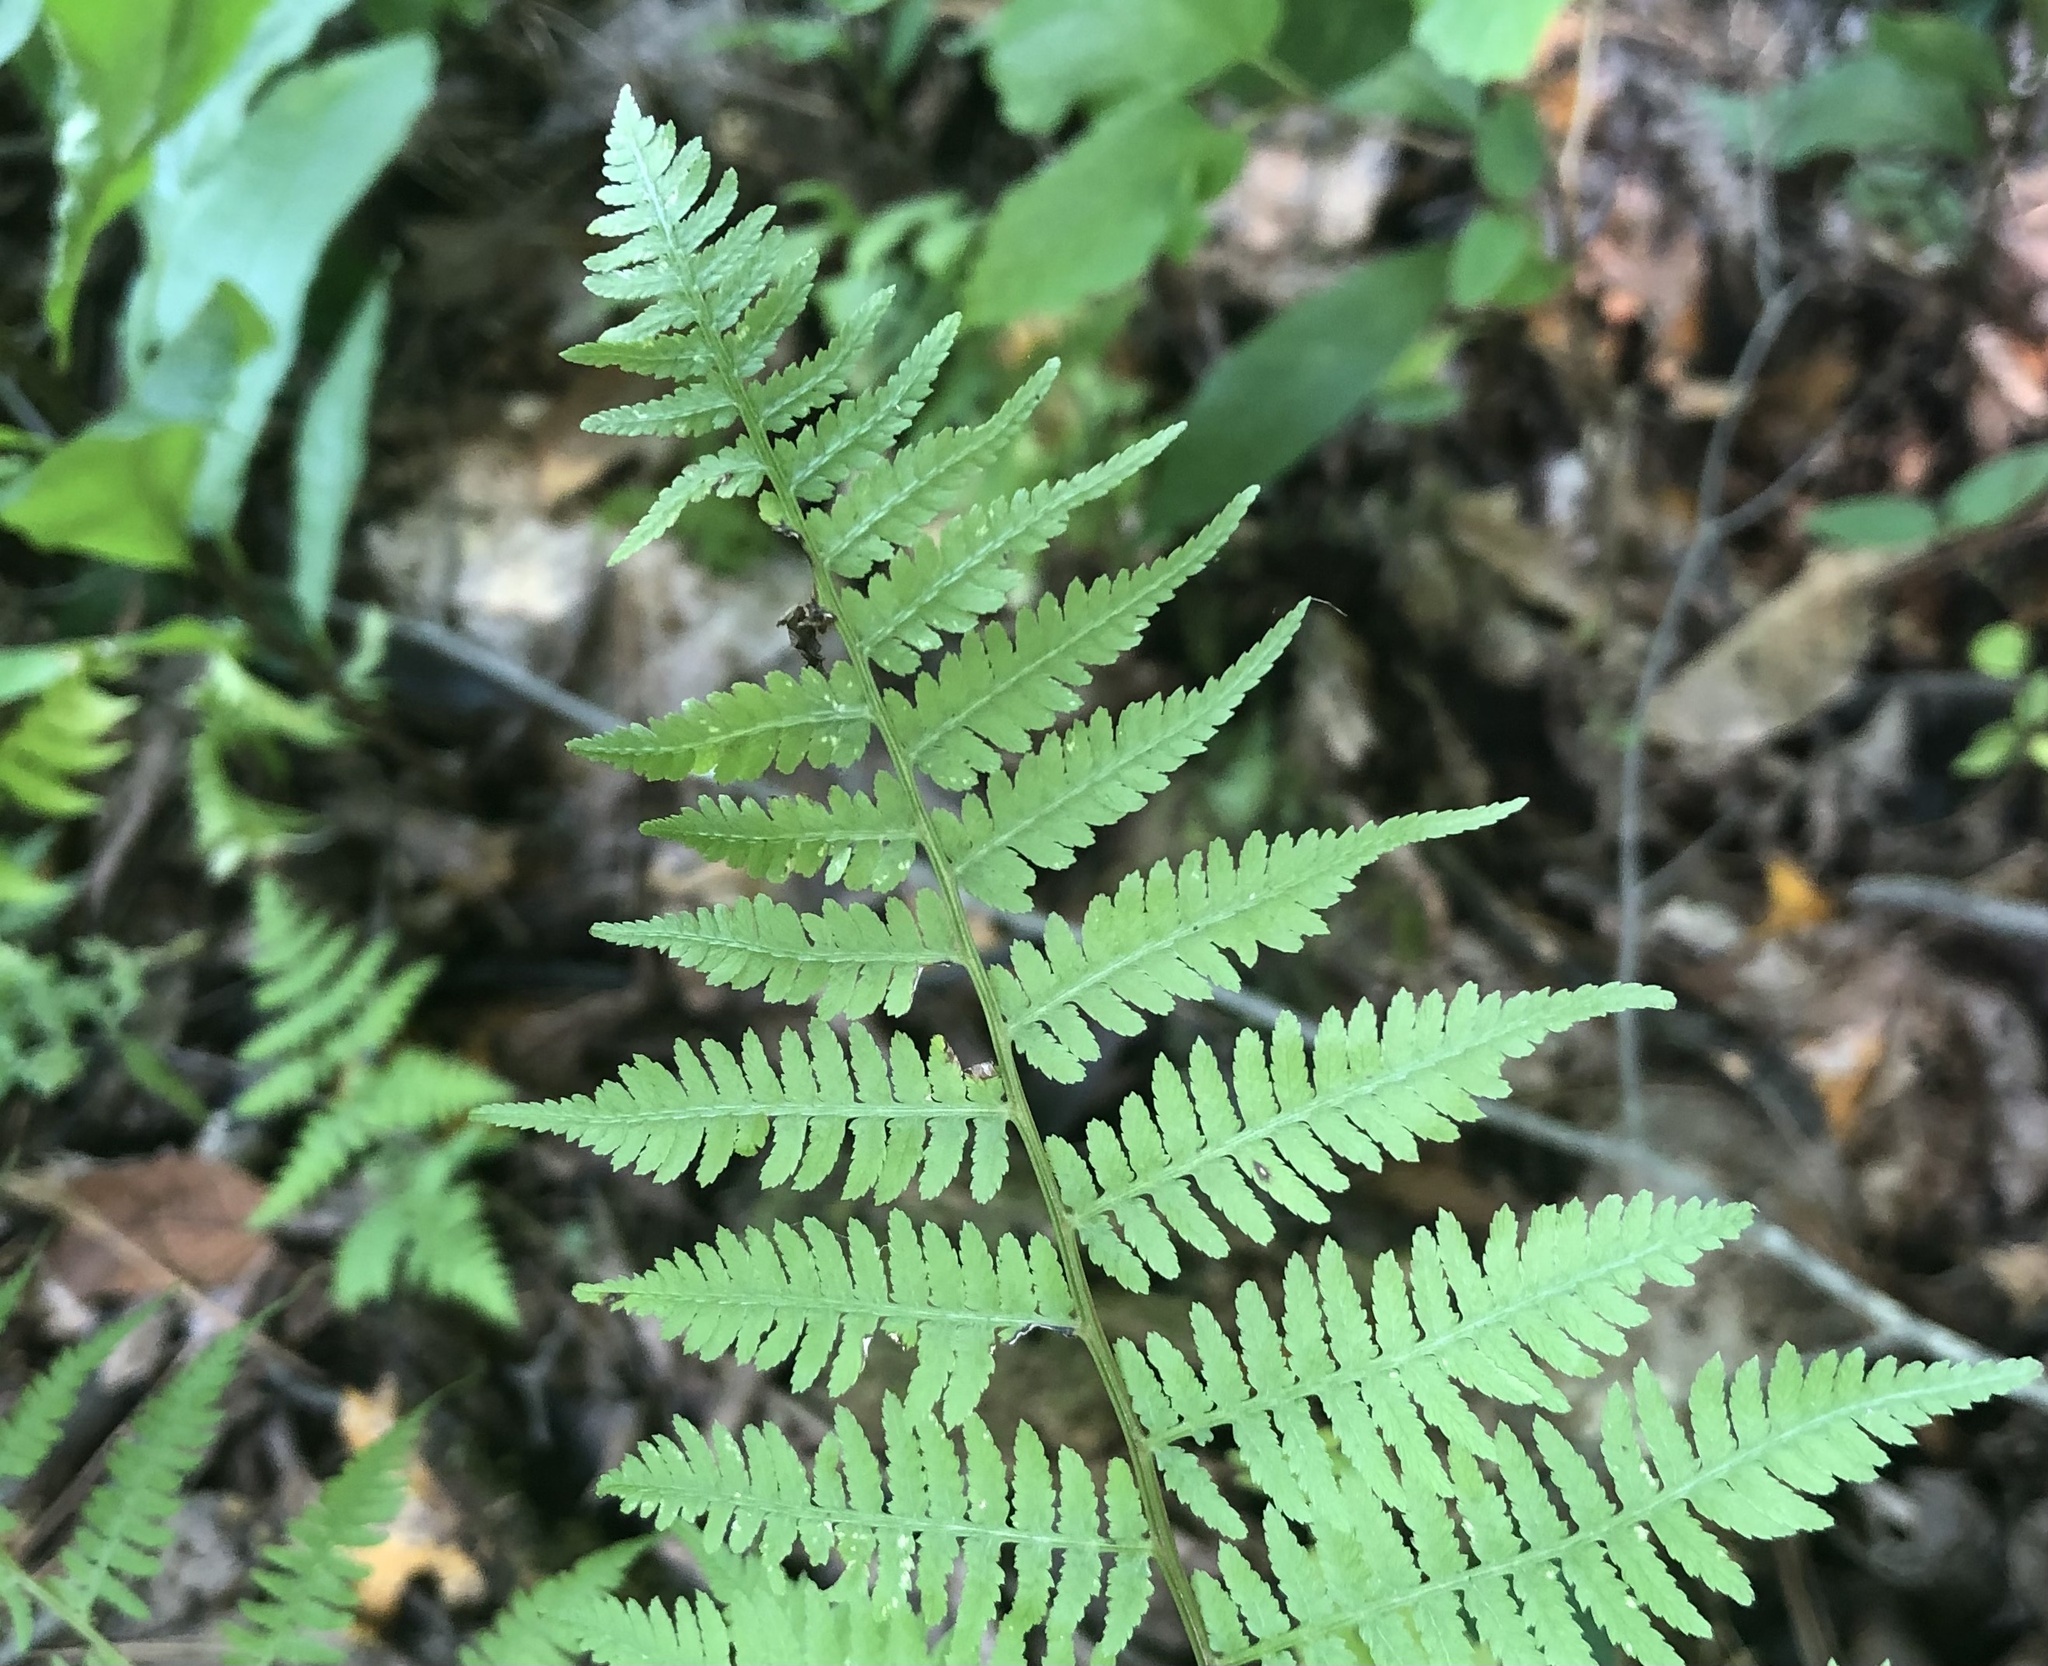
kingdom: Plantae
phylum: Tracheophyta
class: Polypodiopsida
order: Polypodiales
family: Athyriaceae
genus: Athyrium
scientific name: Athyrium asplenioides
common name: Southern lady fern
